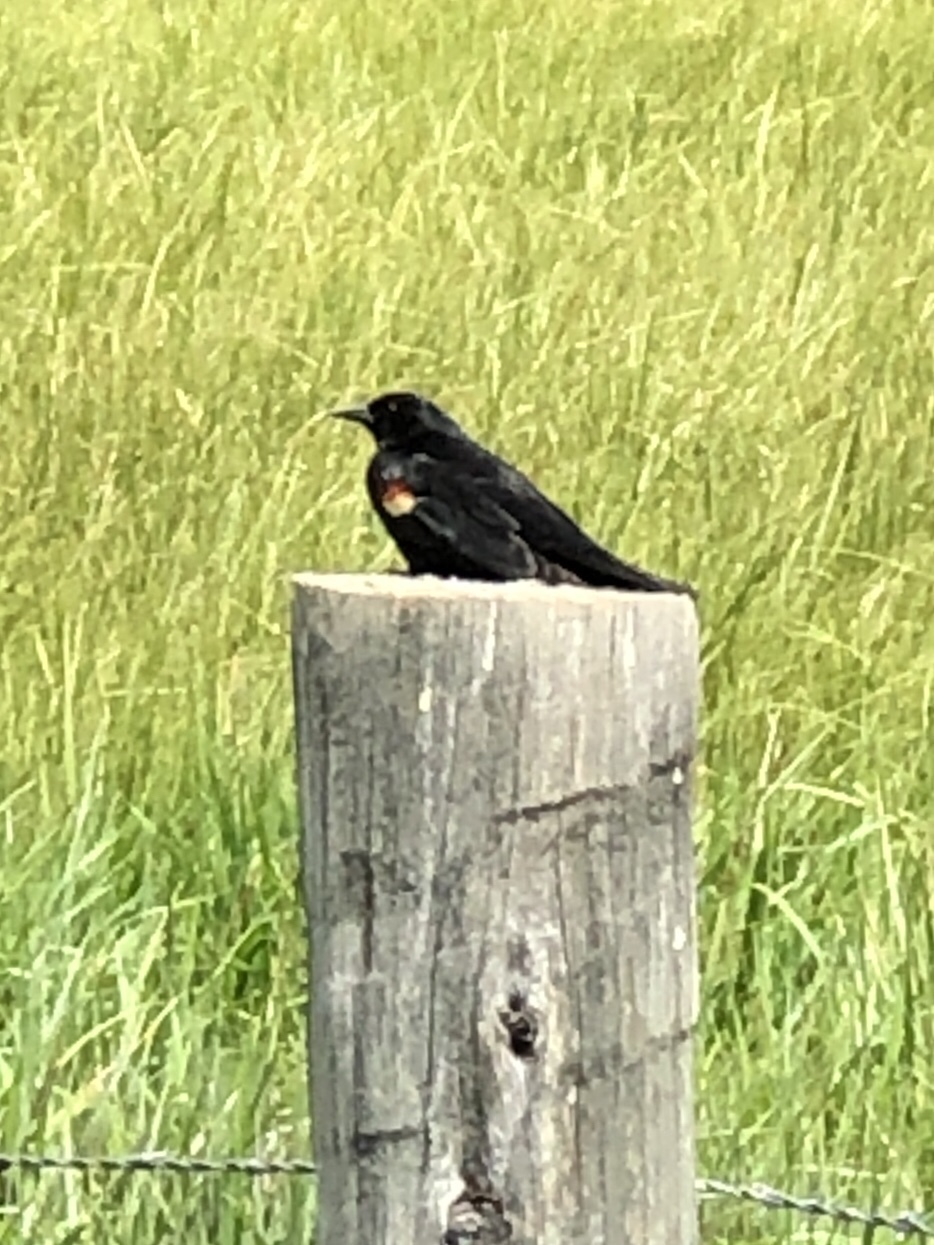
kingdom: Animalia
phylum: Chordata
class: Aves
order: Passeriformes
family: Icteridae
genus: Agelaius
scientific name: Agelaius phoeniceus
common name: Red-winged blackbird
